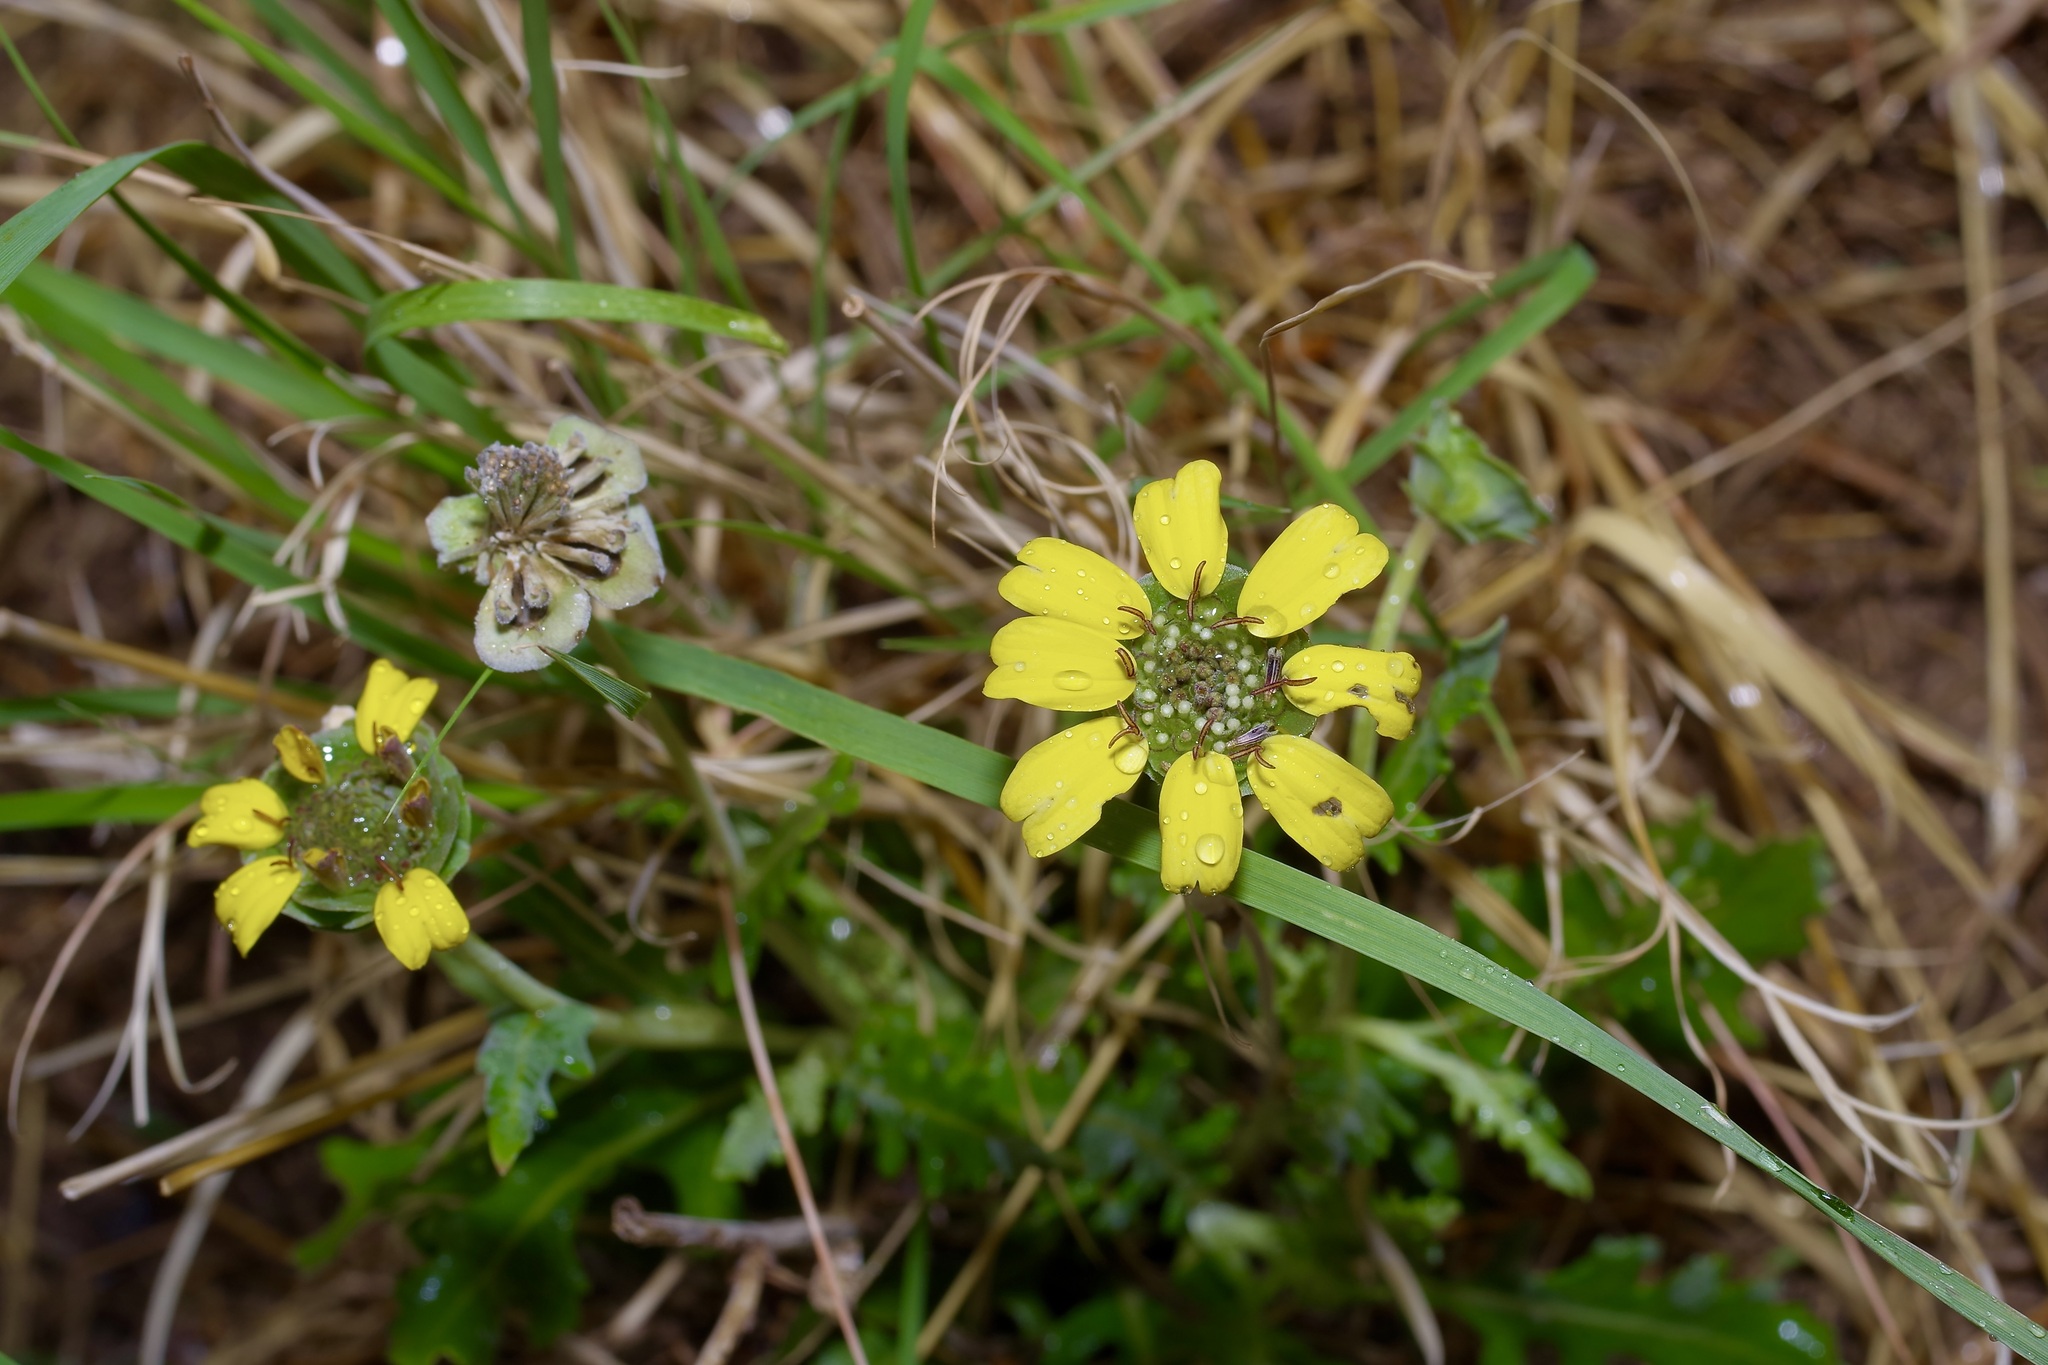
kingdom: Plantae
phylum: Tracheophyta
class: Magnoliopsida
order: Asterales
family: Asteraceae
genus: Berlandiera
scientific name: Berlandiera lyrata
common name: Chocolate-flower
